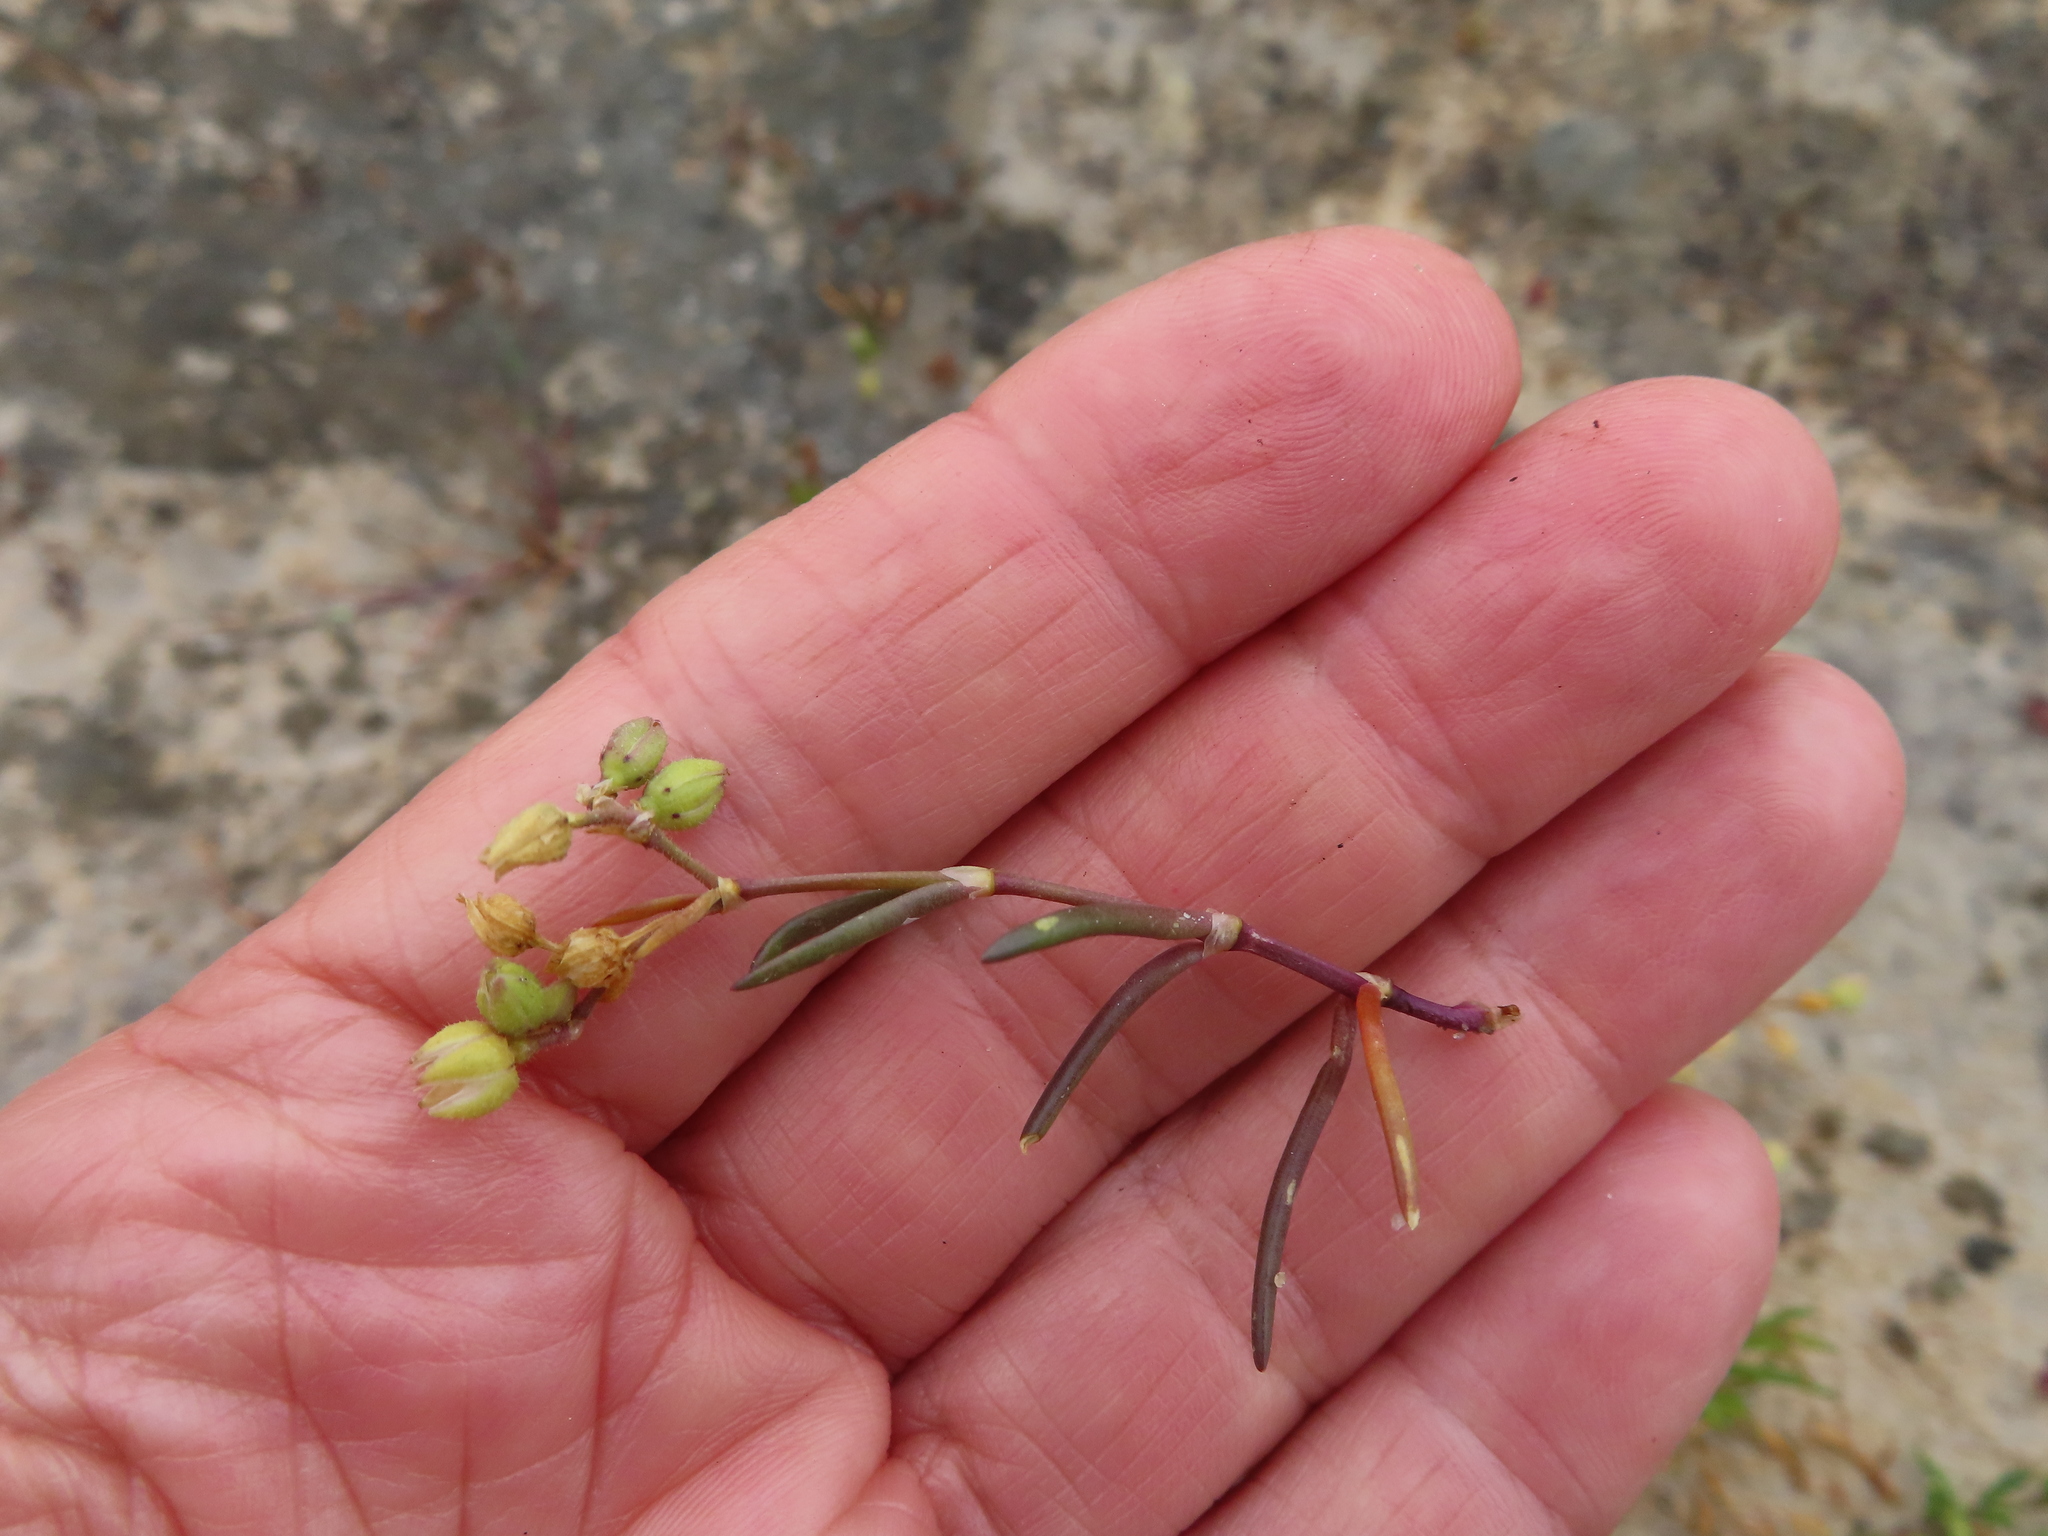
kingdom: Plantae
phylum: Tracheophyta
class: Magnoliopsida
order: Caryophyllales
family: Caryophyllaceae
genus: Spergularia
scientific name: Spergularia media
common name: Greater sea-spurrey
